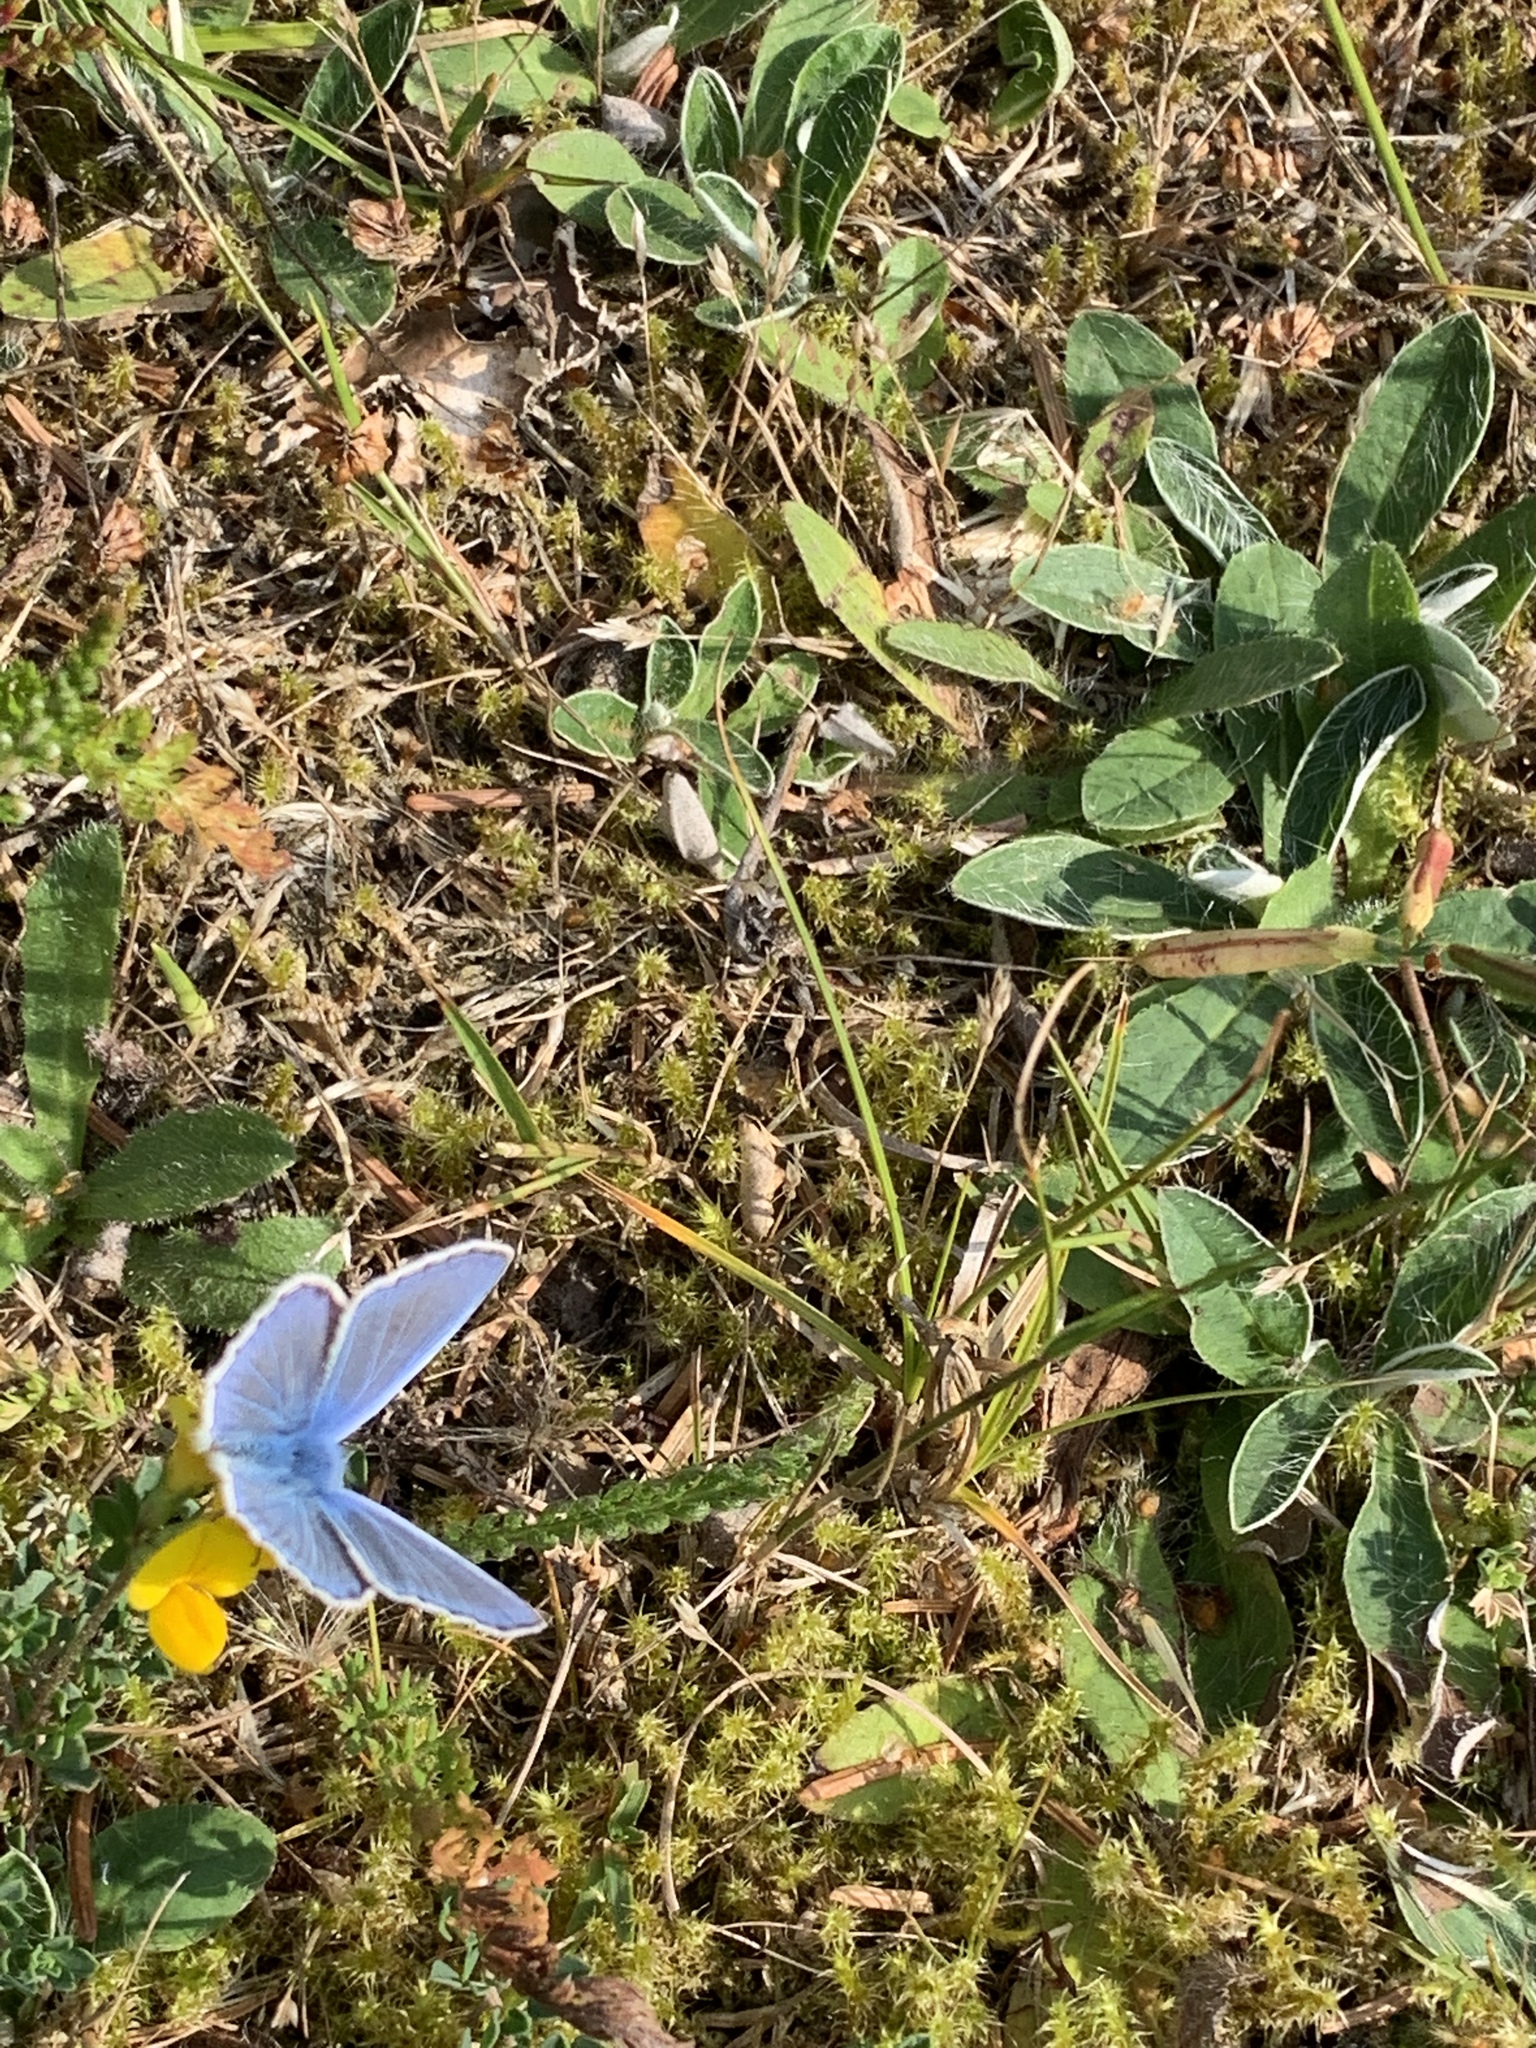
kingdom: Animalia
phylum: Arthropoda
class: Insecta
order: Lepidoptera
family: Lycaenidae
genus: Polyommatus
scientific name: Polyommatus icarus
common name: Common blue
